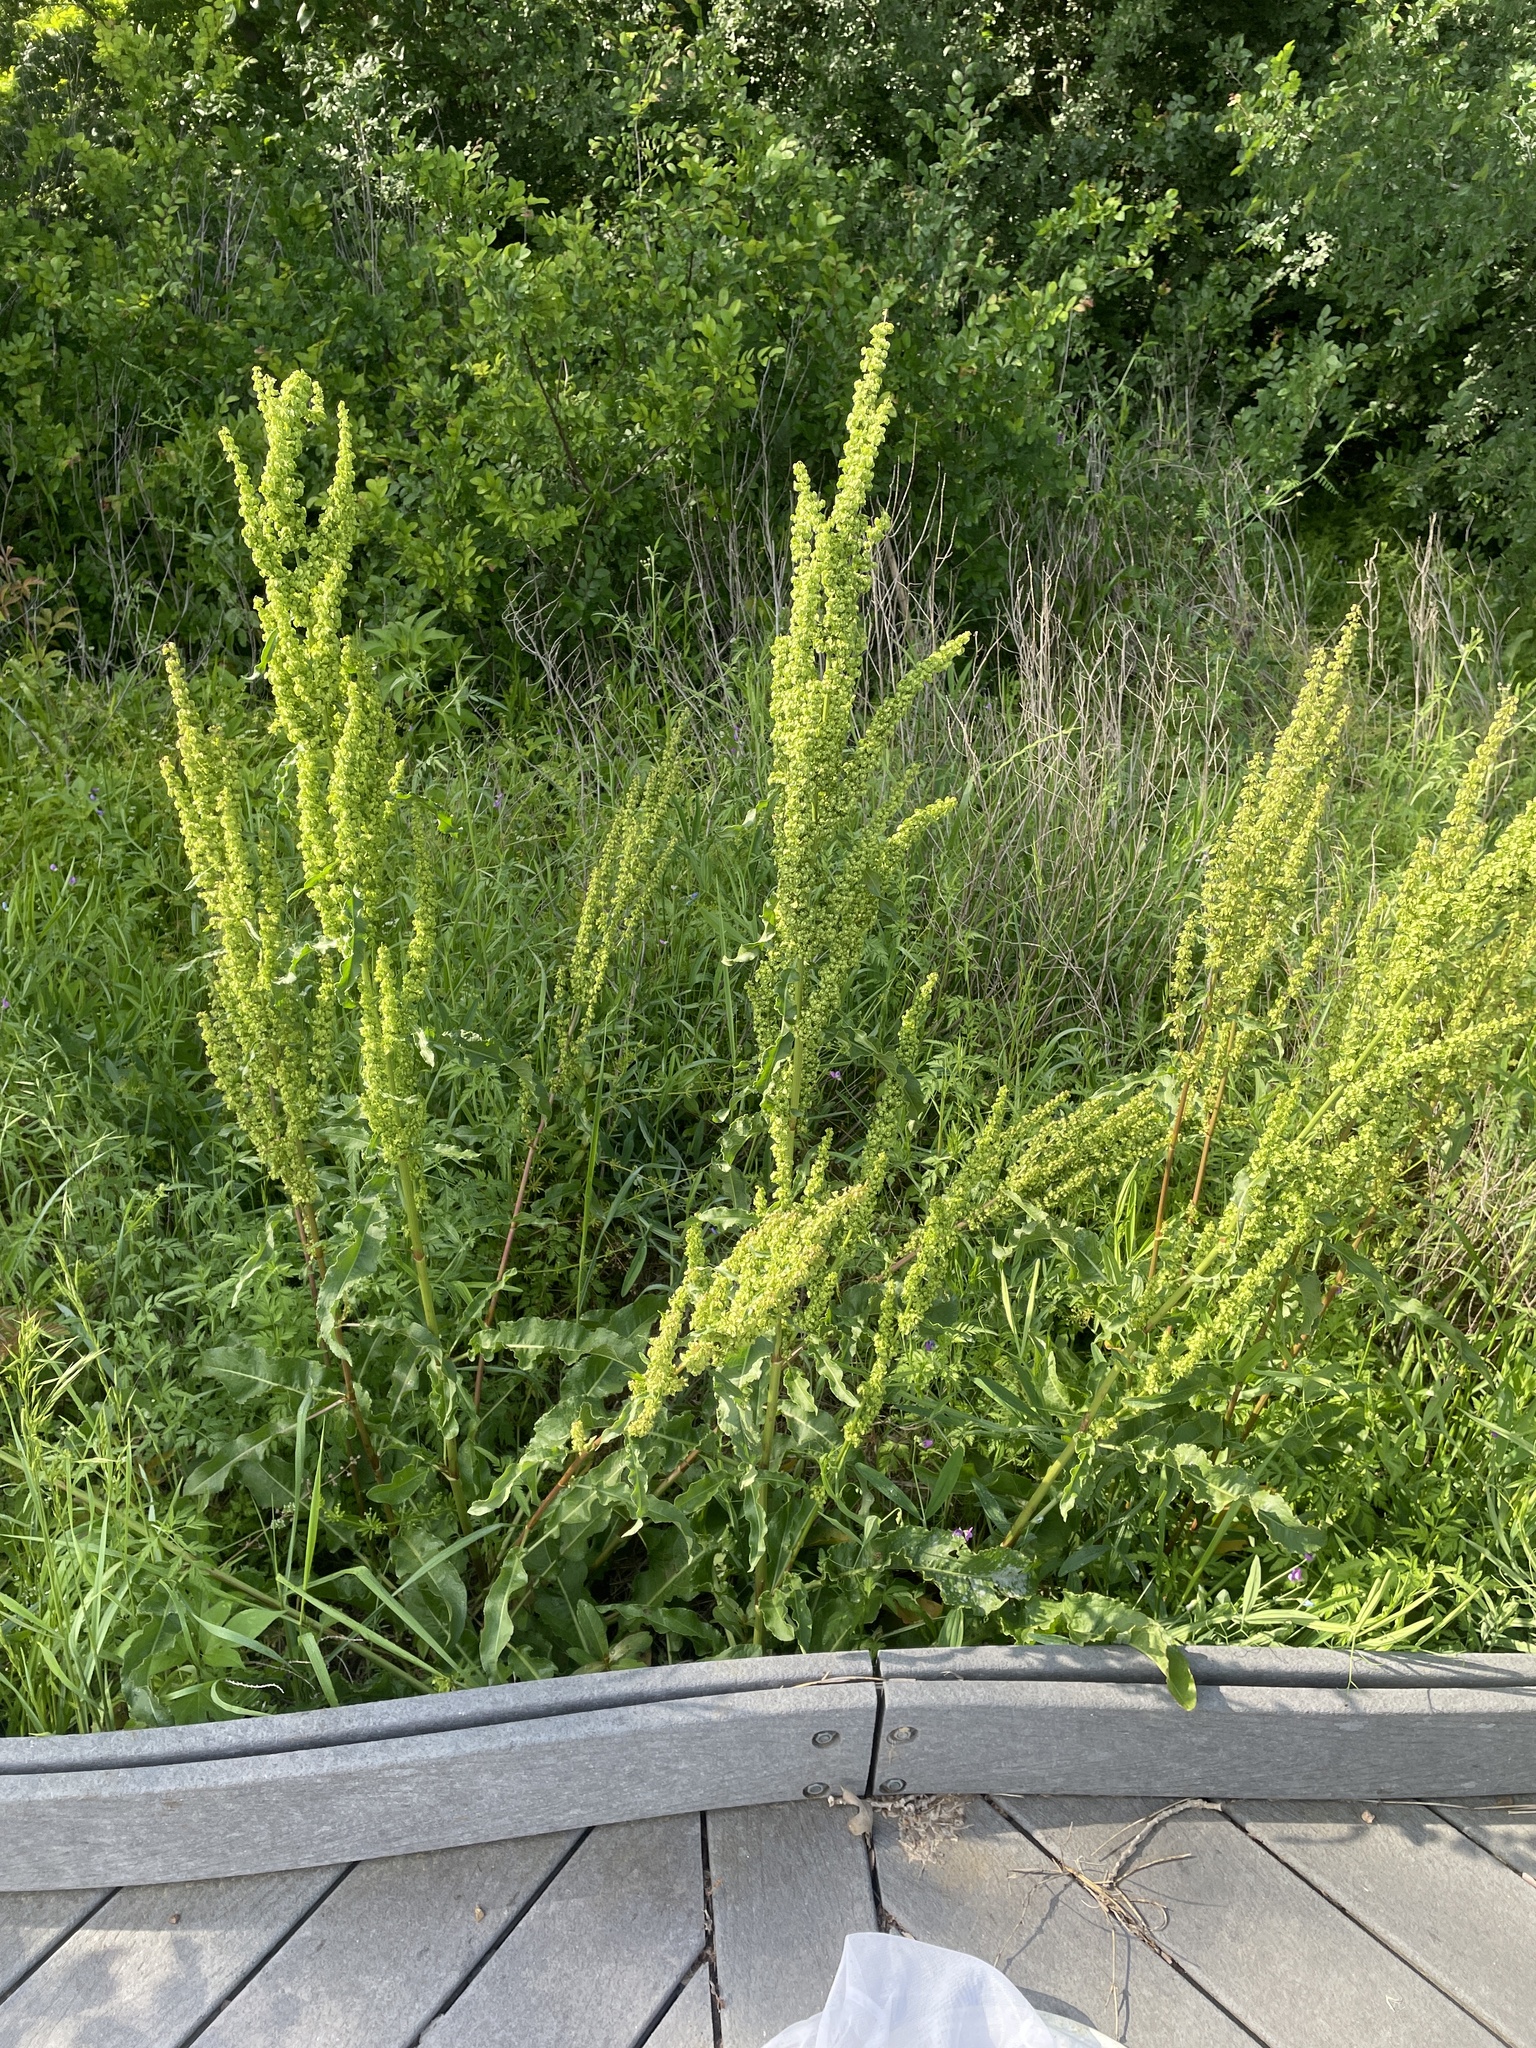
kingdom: Plantae
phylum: Tracheophyta
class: Magnoliopsida
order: Caryophyllales
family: Polygonaceae
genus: Rumex
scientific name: Rumex crispus
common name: Curled dock
